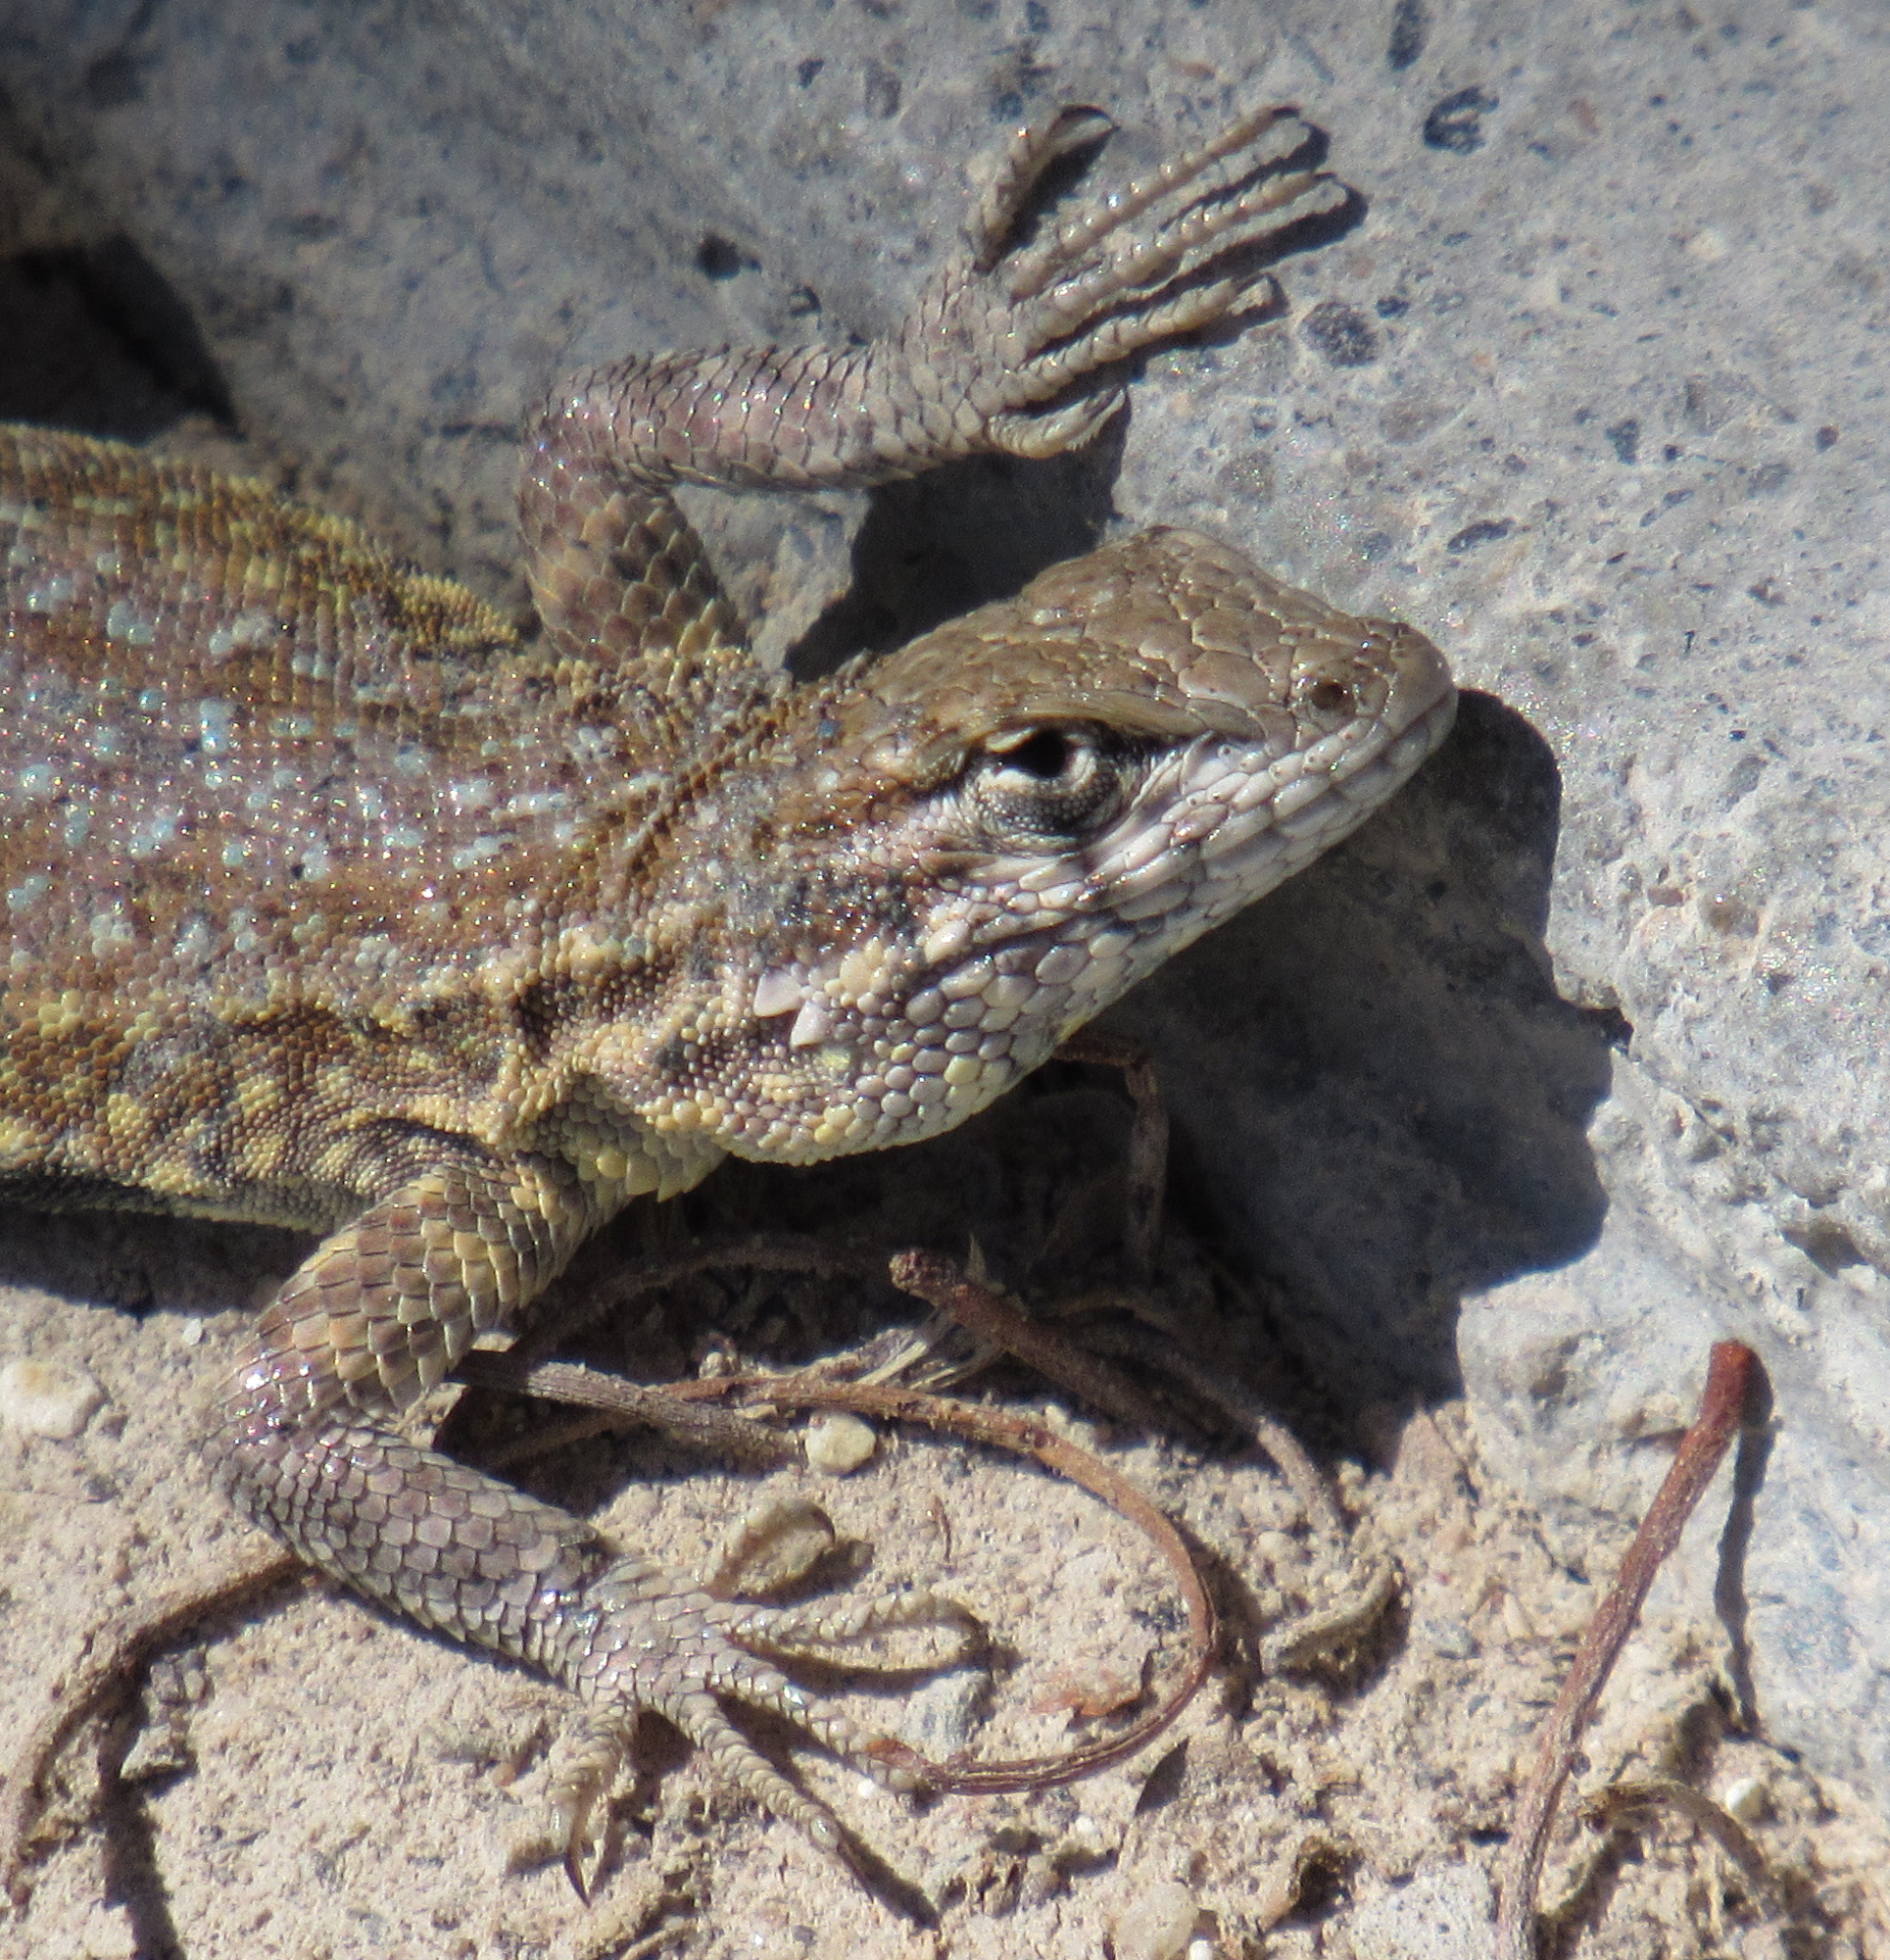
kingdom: Animalia
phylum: Chordata
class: Squamata
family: Phrynosomatidae
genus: Uta
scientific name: Uta stansburiana
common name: Side-blotched lizard
